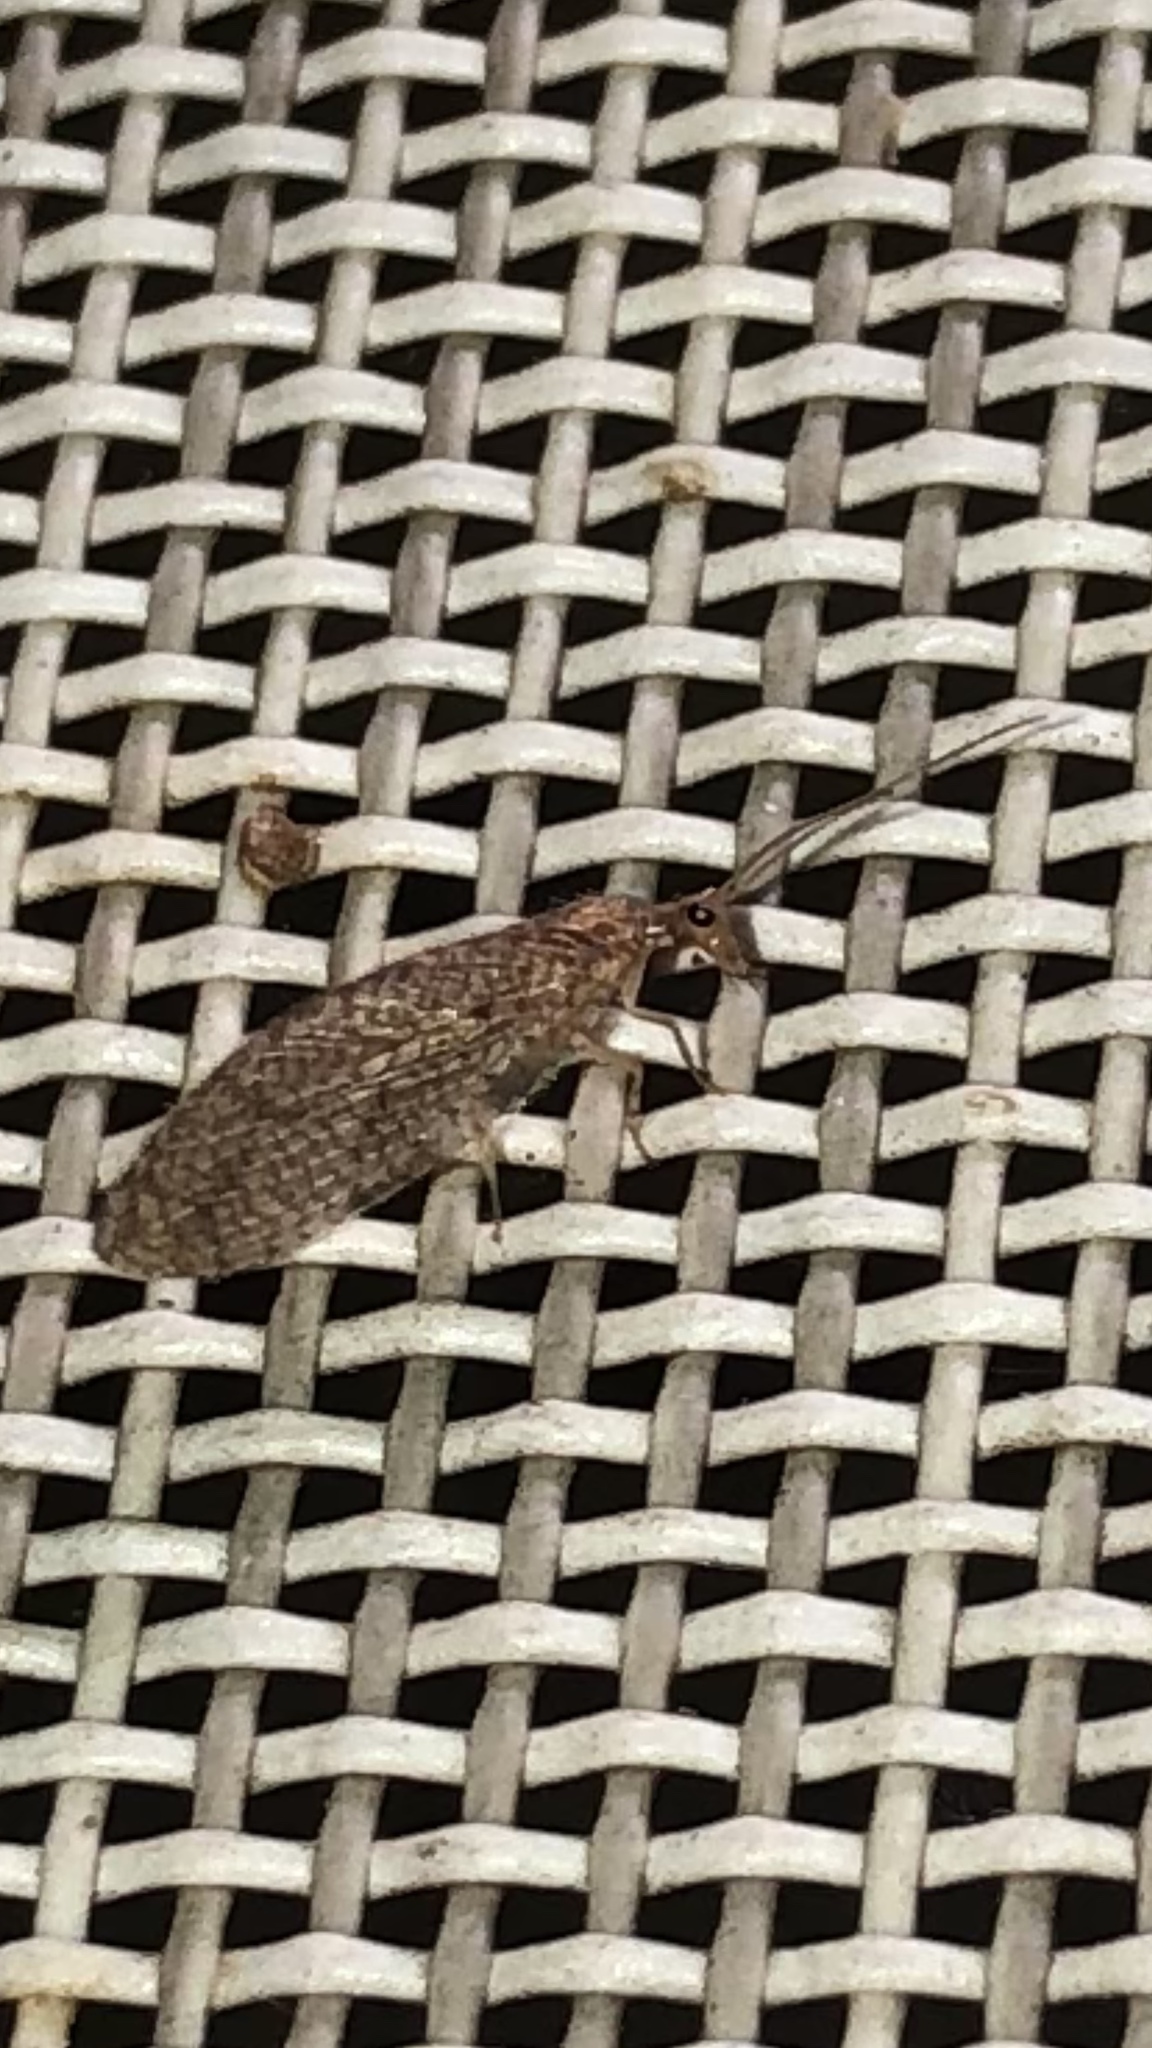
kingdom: Animalia
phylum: Arthropoda
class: Insecta
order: Neuroptera
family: Hemerobiidae
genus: Micromus
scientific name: Micromus posticus
